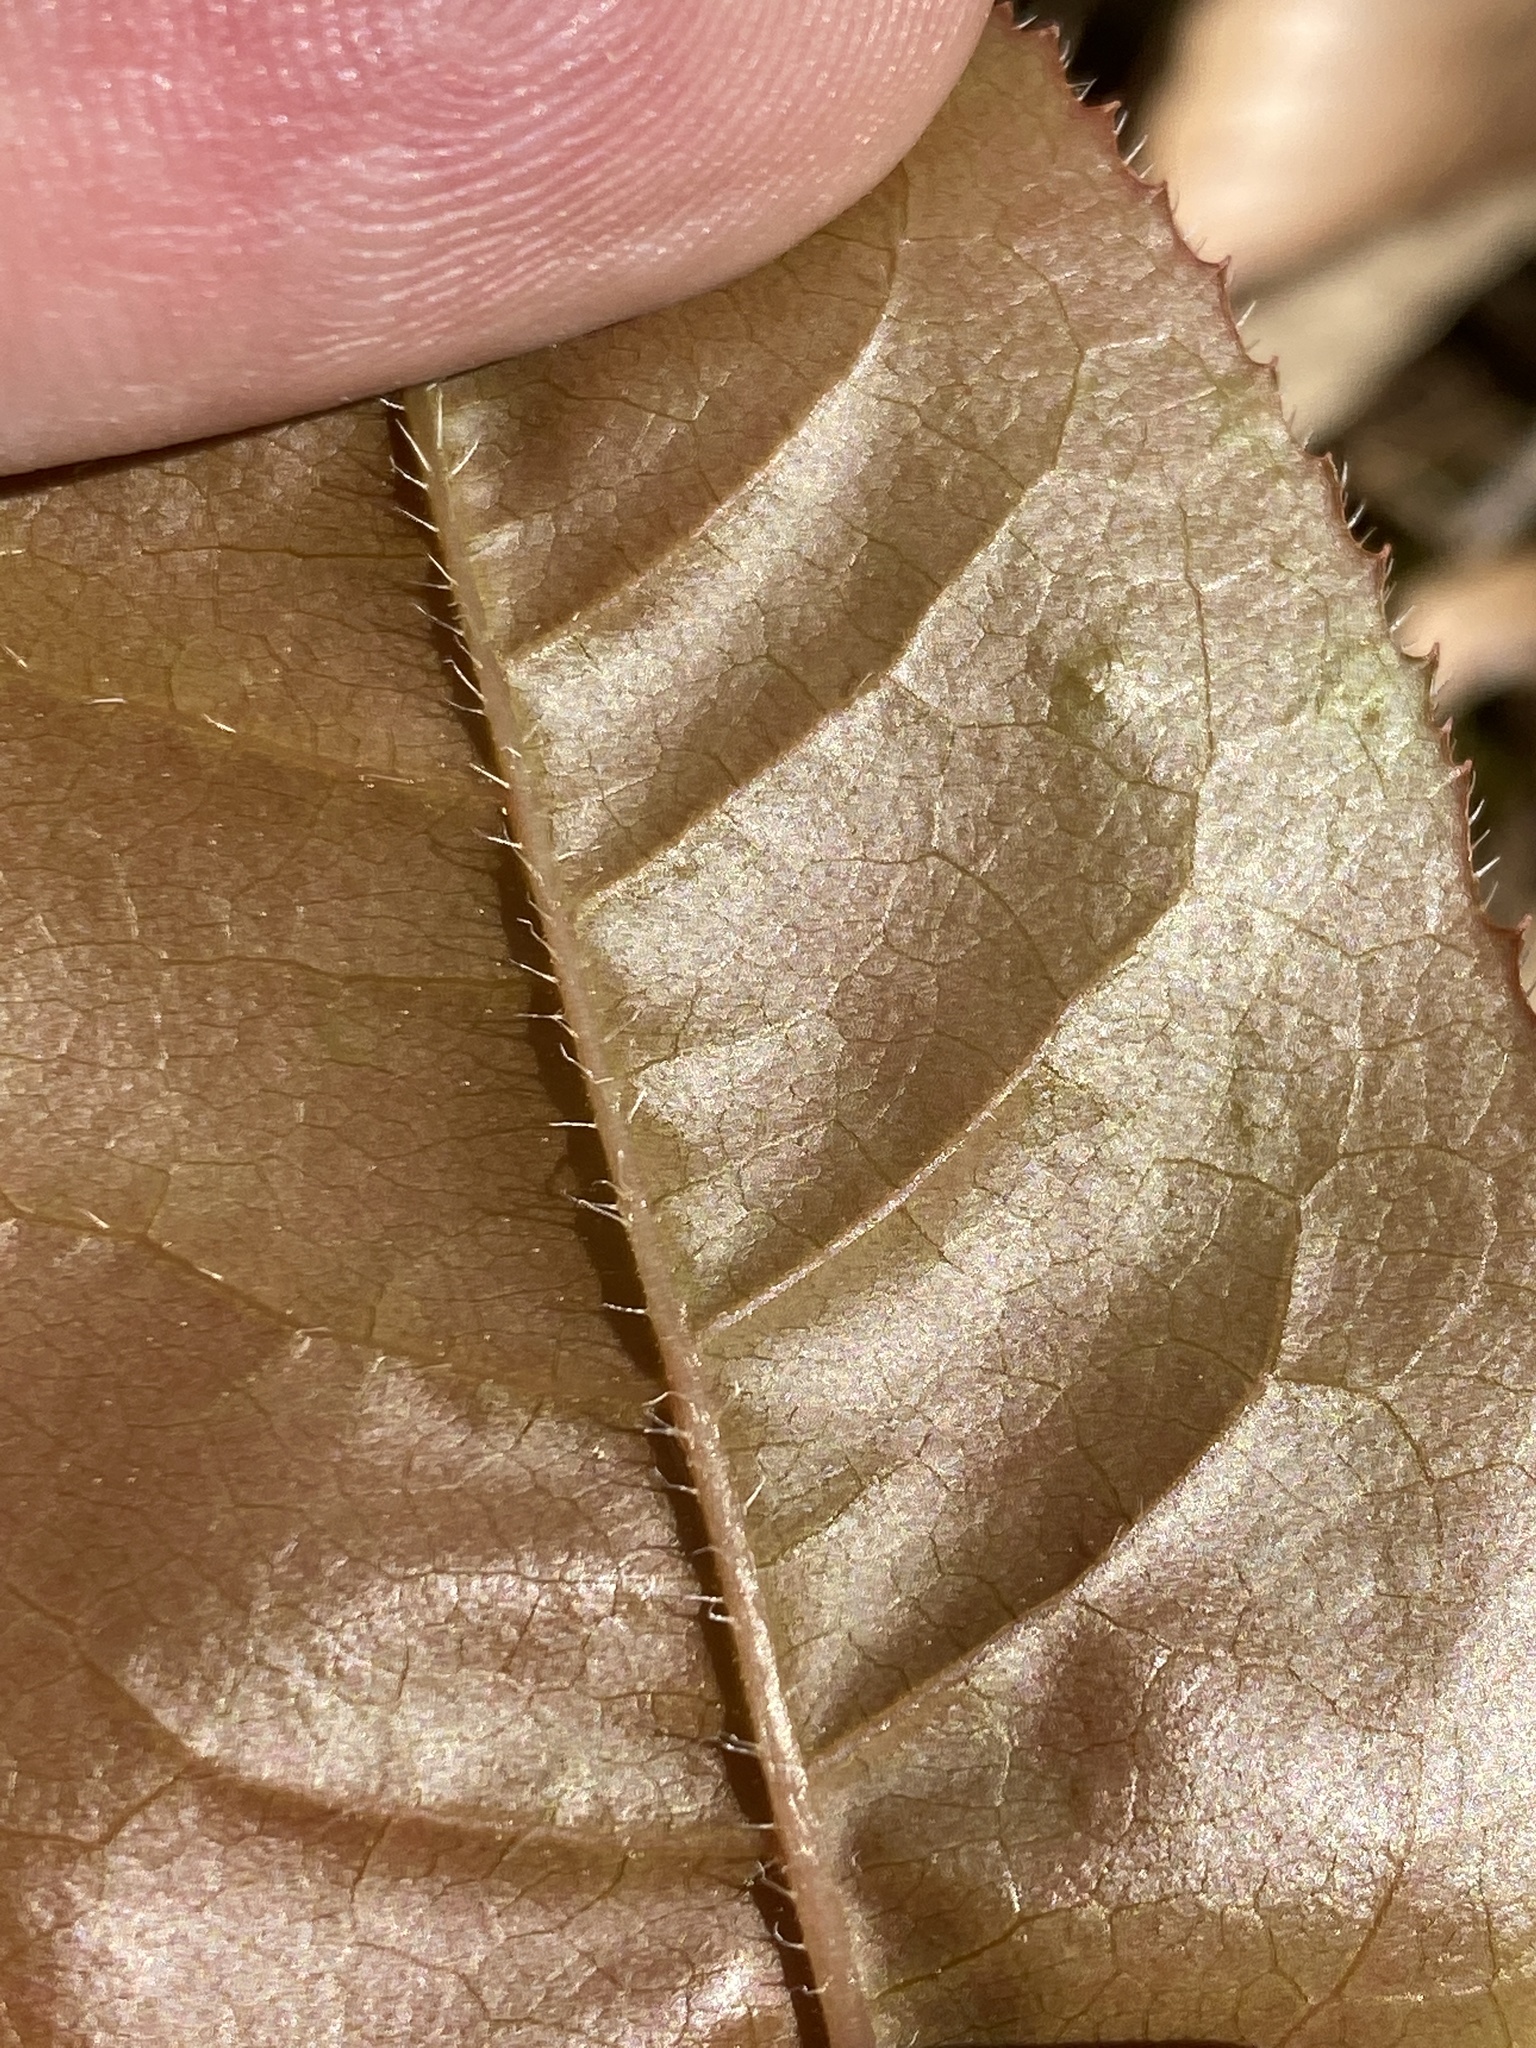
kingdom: Plantae
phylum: Tracheophyta
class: Magnoliopsida
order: Ericales
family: Ericaceae
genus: Oxydendrum
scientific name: Oxydendrum arboreum
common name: Sourwood
